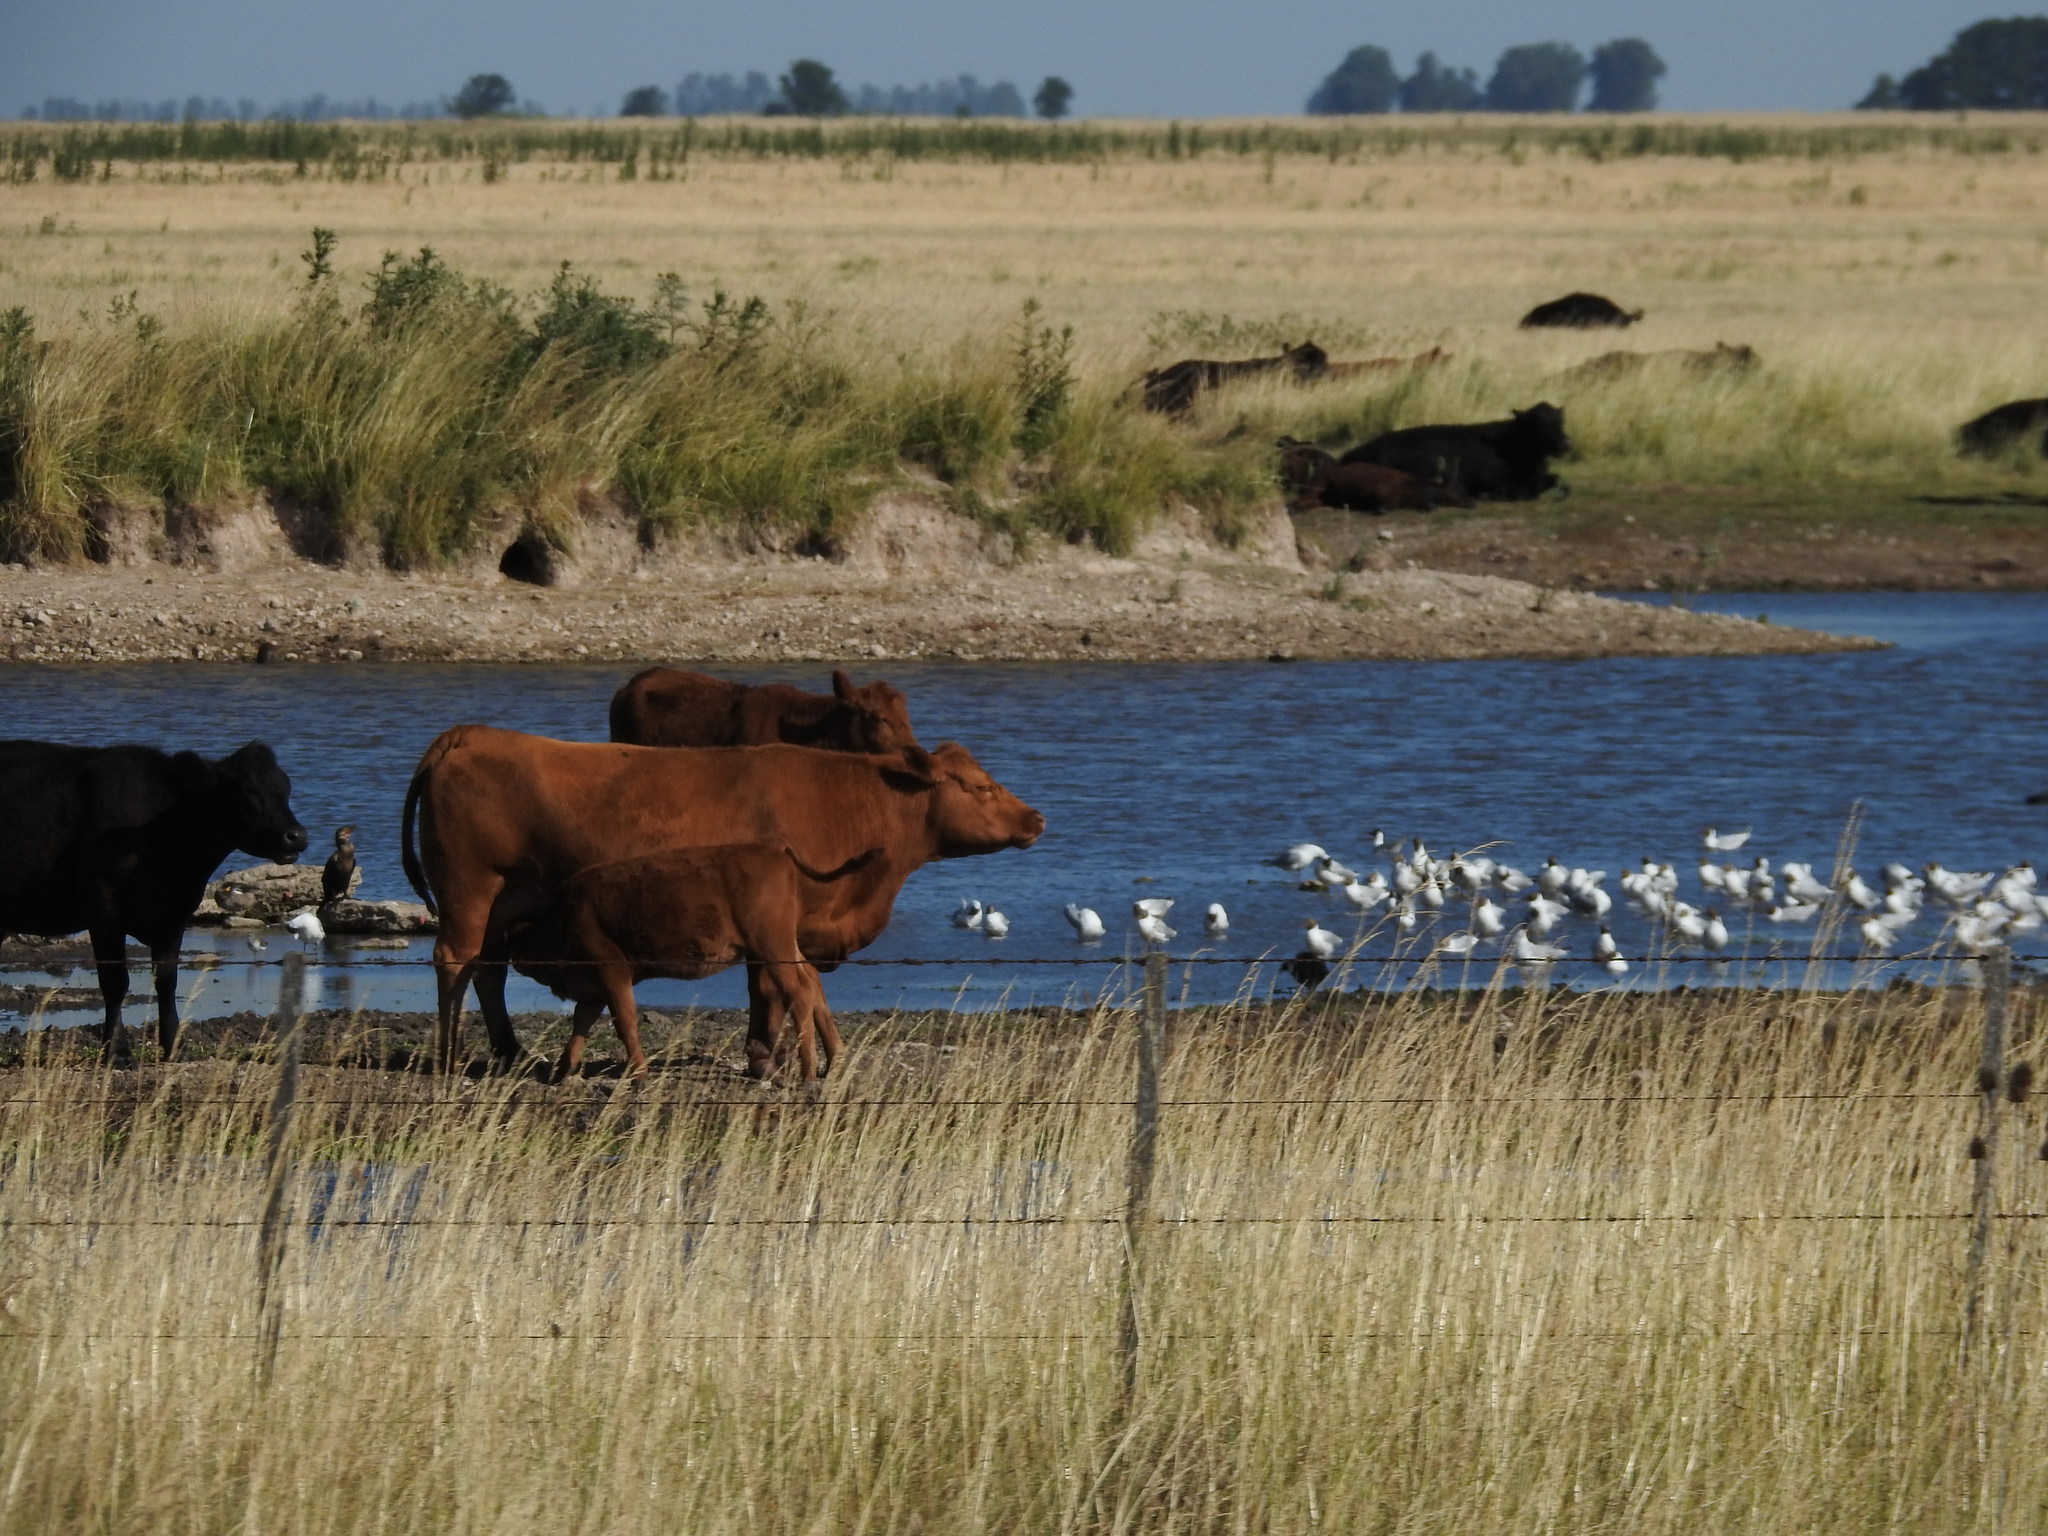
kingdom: Animalia
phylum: Chordata
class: Aves
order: Suliformes
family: Phalacrocoracidae
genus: Phalacrocorax
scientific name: Phalacrocorax brasilianus
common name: Neotropic cormorant
